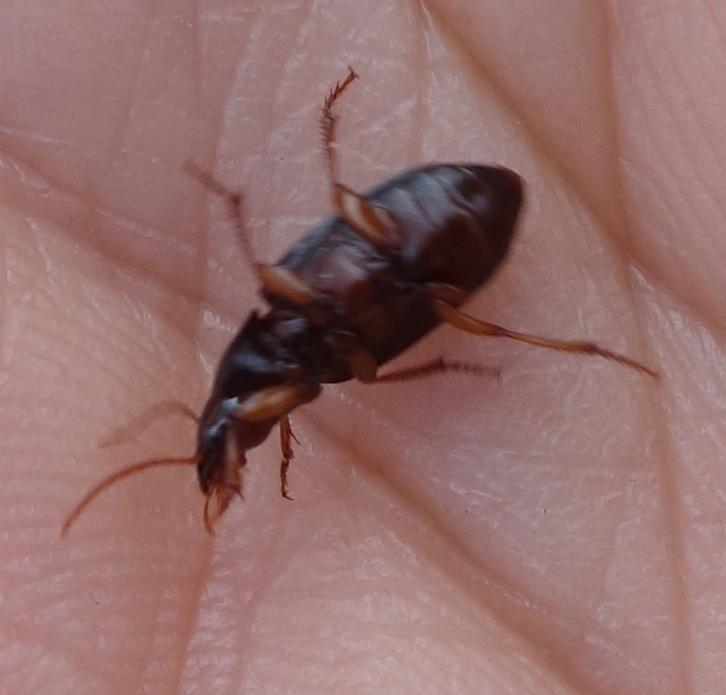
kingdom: Animalia
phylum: Arthropoda
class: Insecta
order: Coleoptera
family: Carabidae
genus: Ophonus
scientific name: Ophonus ardosiacus
